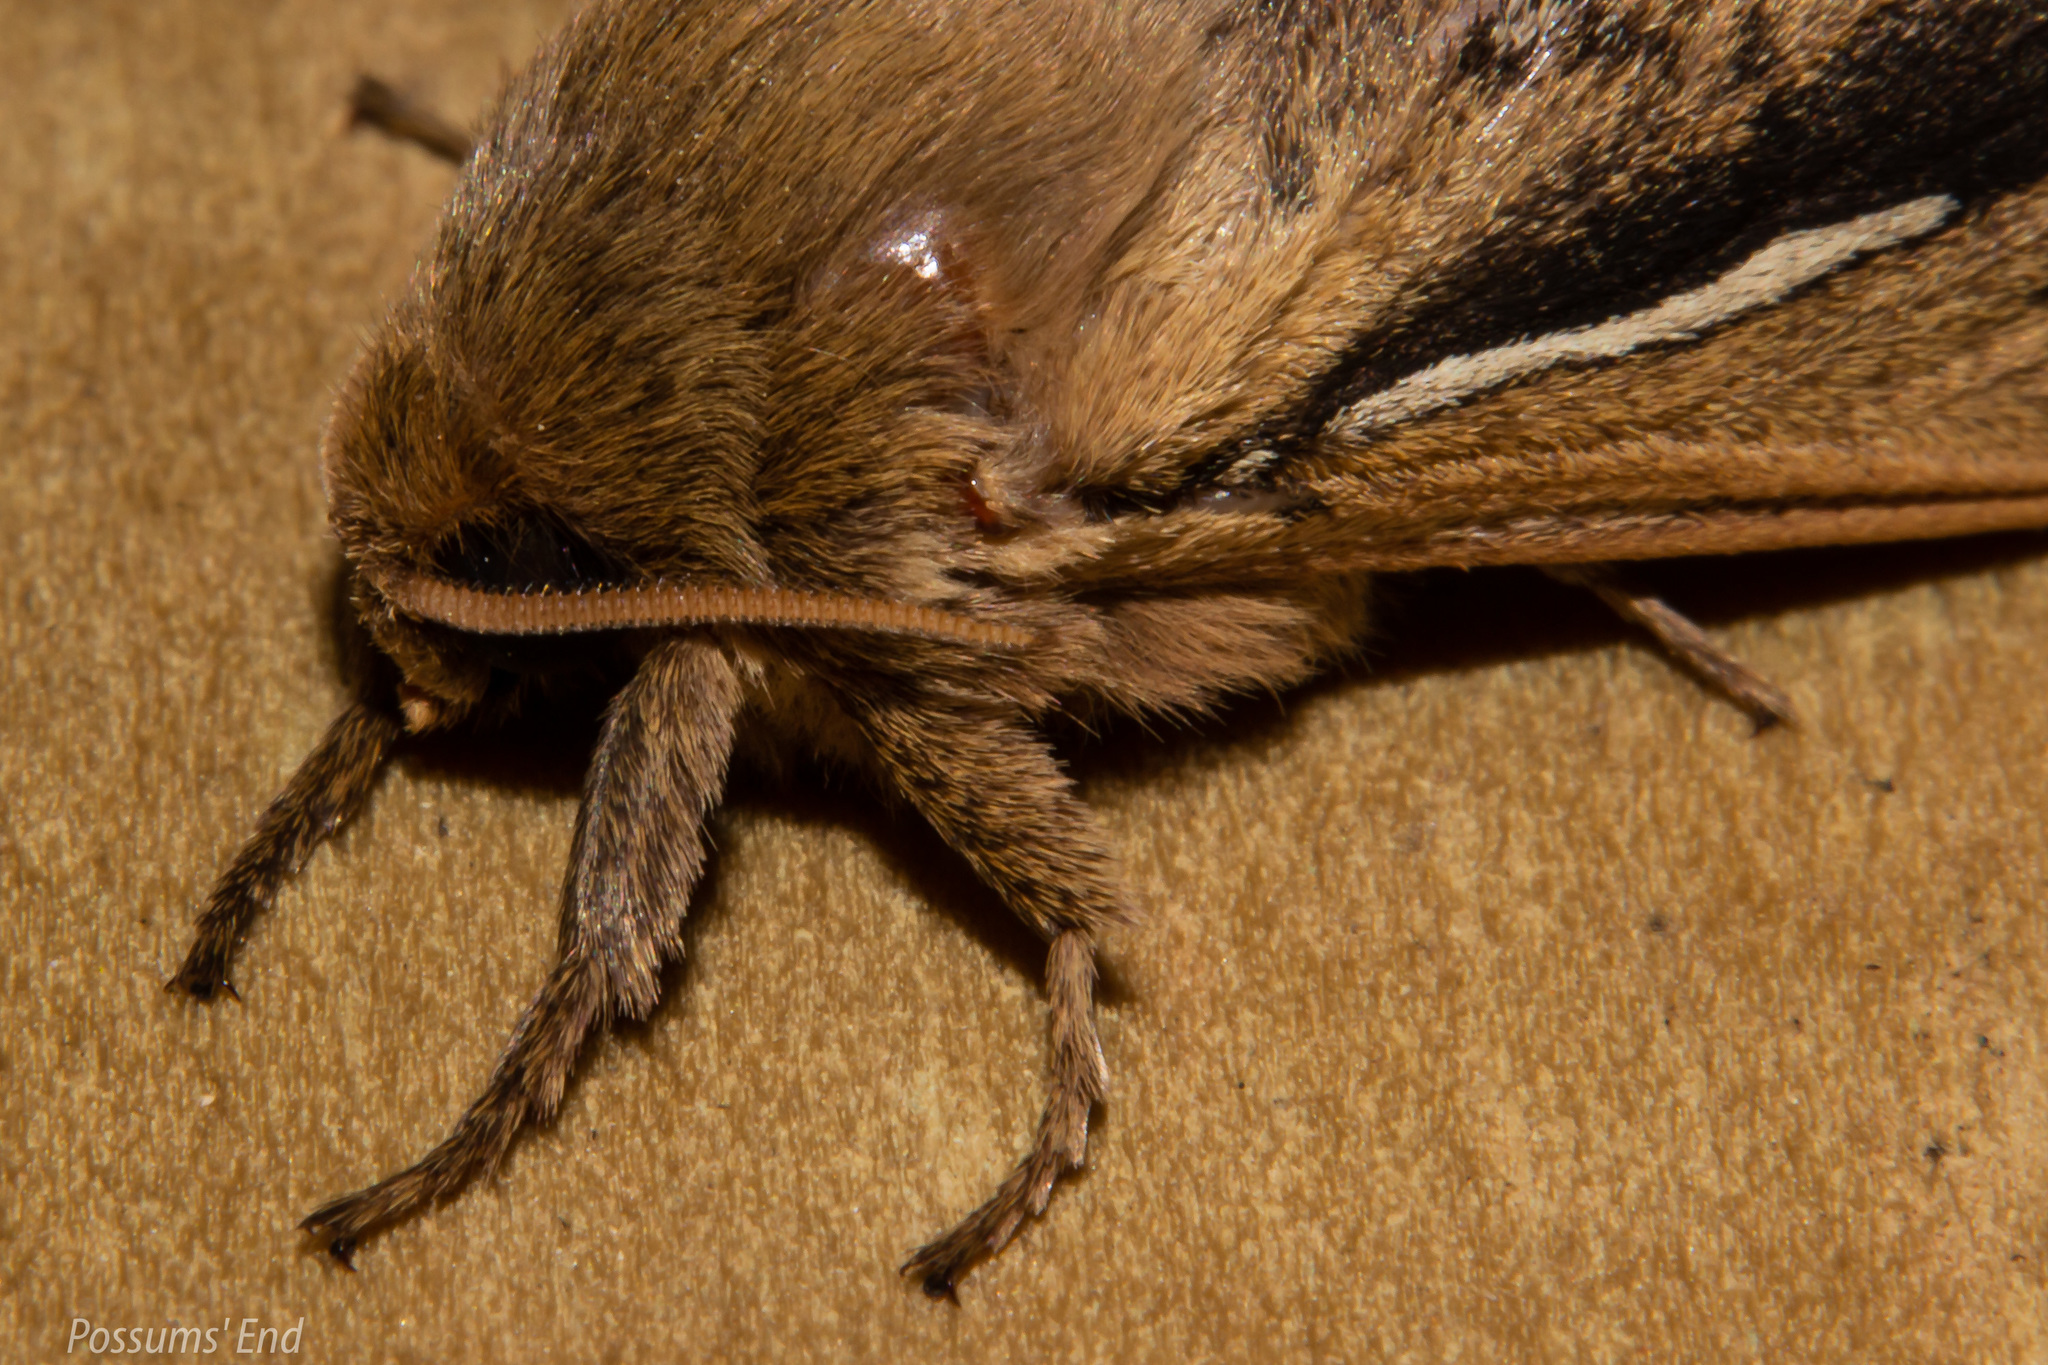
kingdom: Animalia
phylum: Arthropoda
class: Insecta
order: Lepidoptera
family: Hepialidae
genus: Wiseana
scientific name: Wiseana umbraculatus
